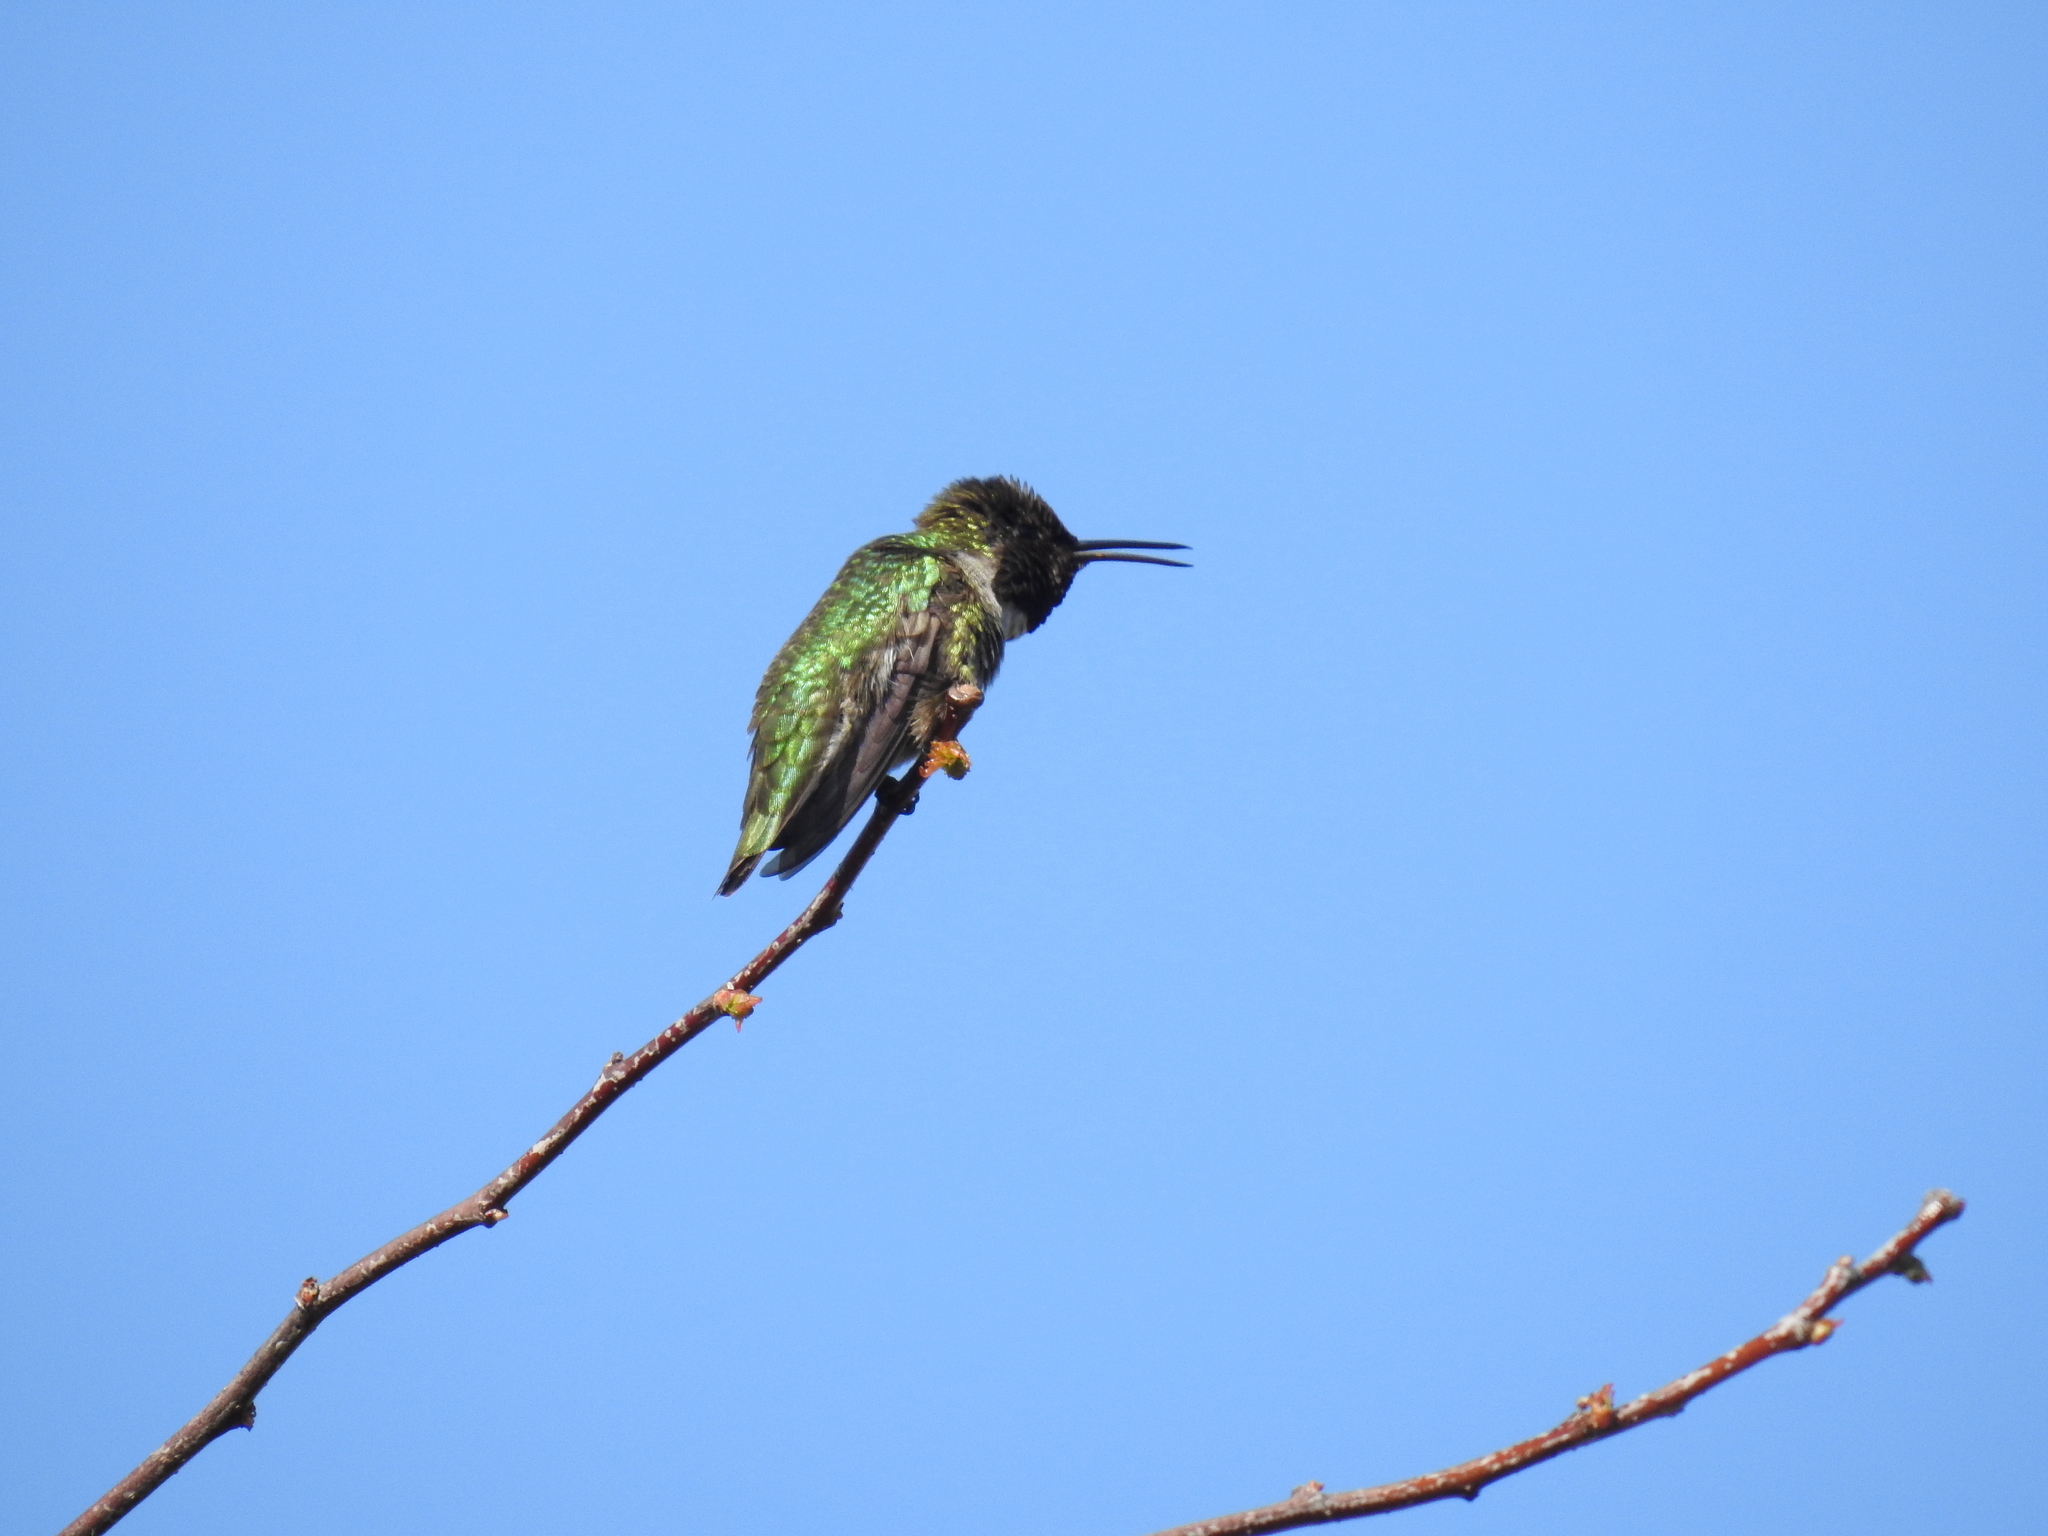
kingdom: Animalia
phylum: Chordata
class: Aves
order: Apodiformes
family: Trochilidae
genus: Calypte
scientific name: Calypte anna
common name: Anna's hummingbird
